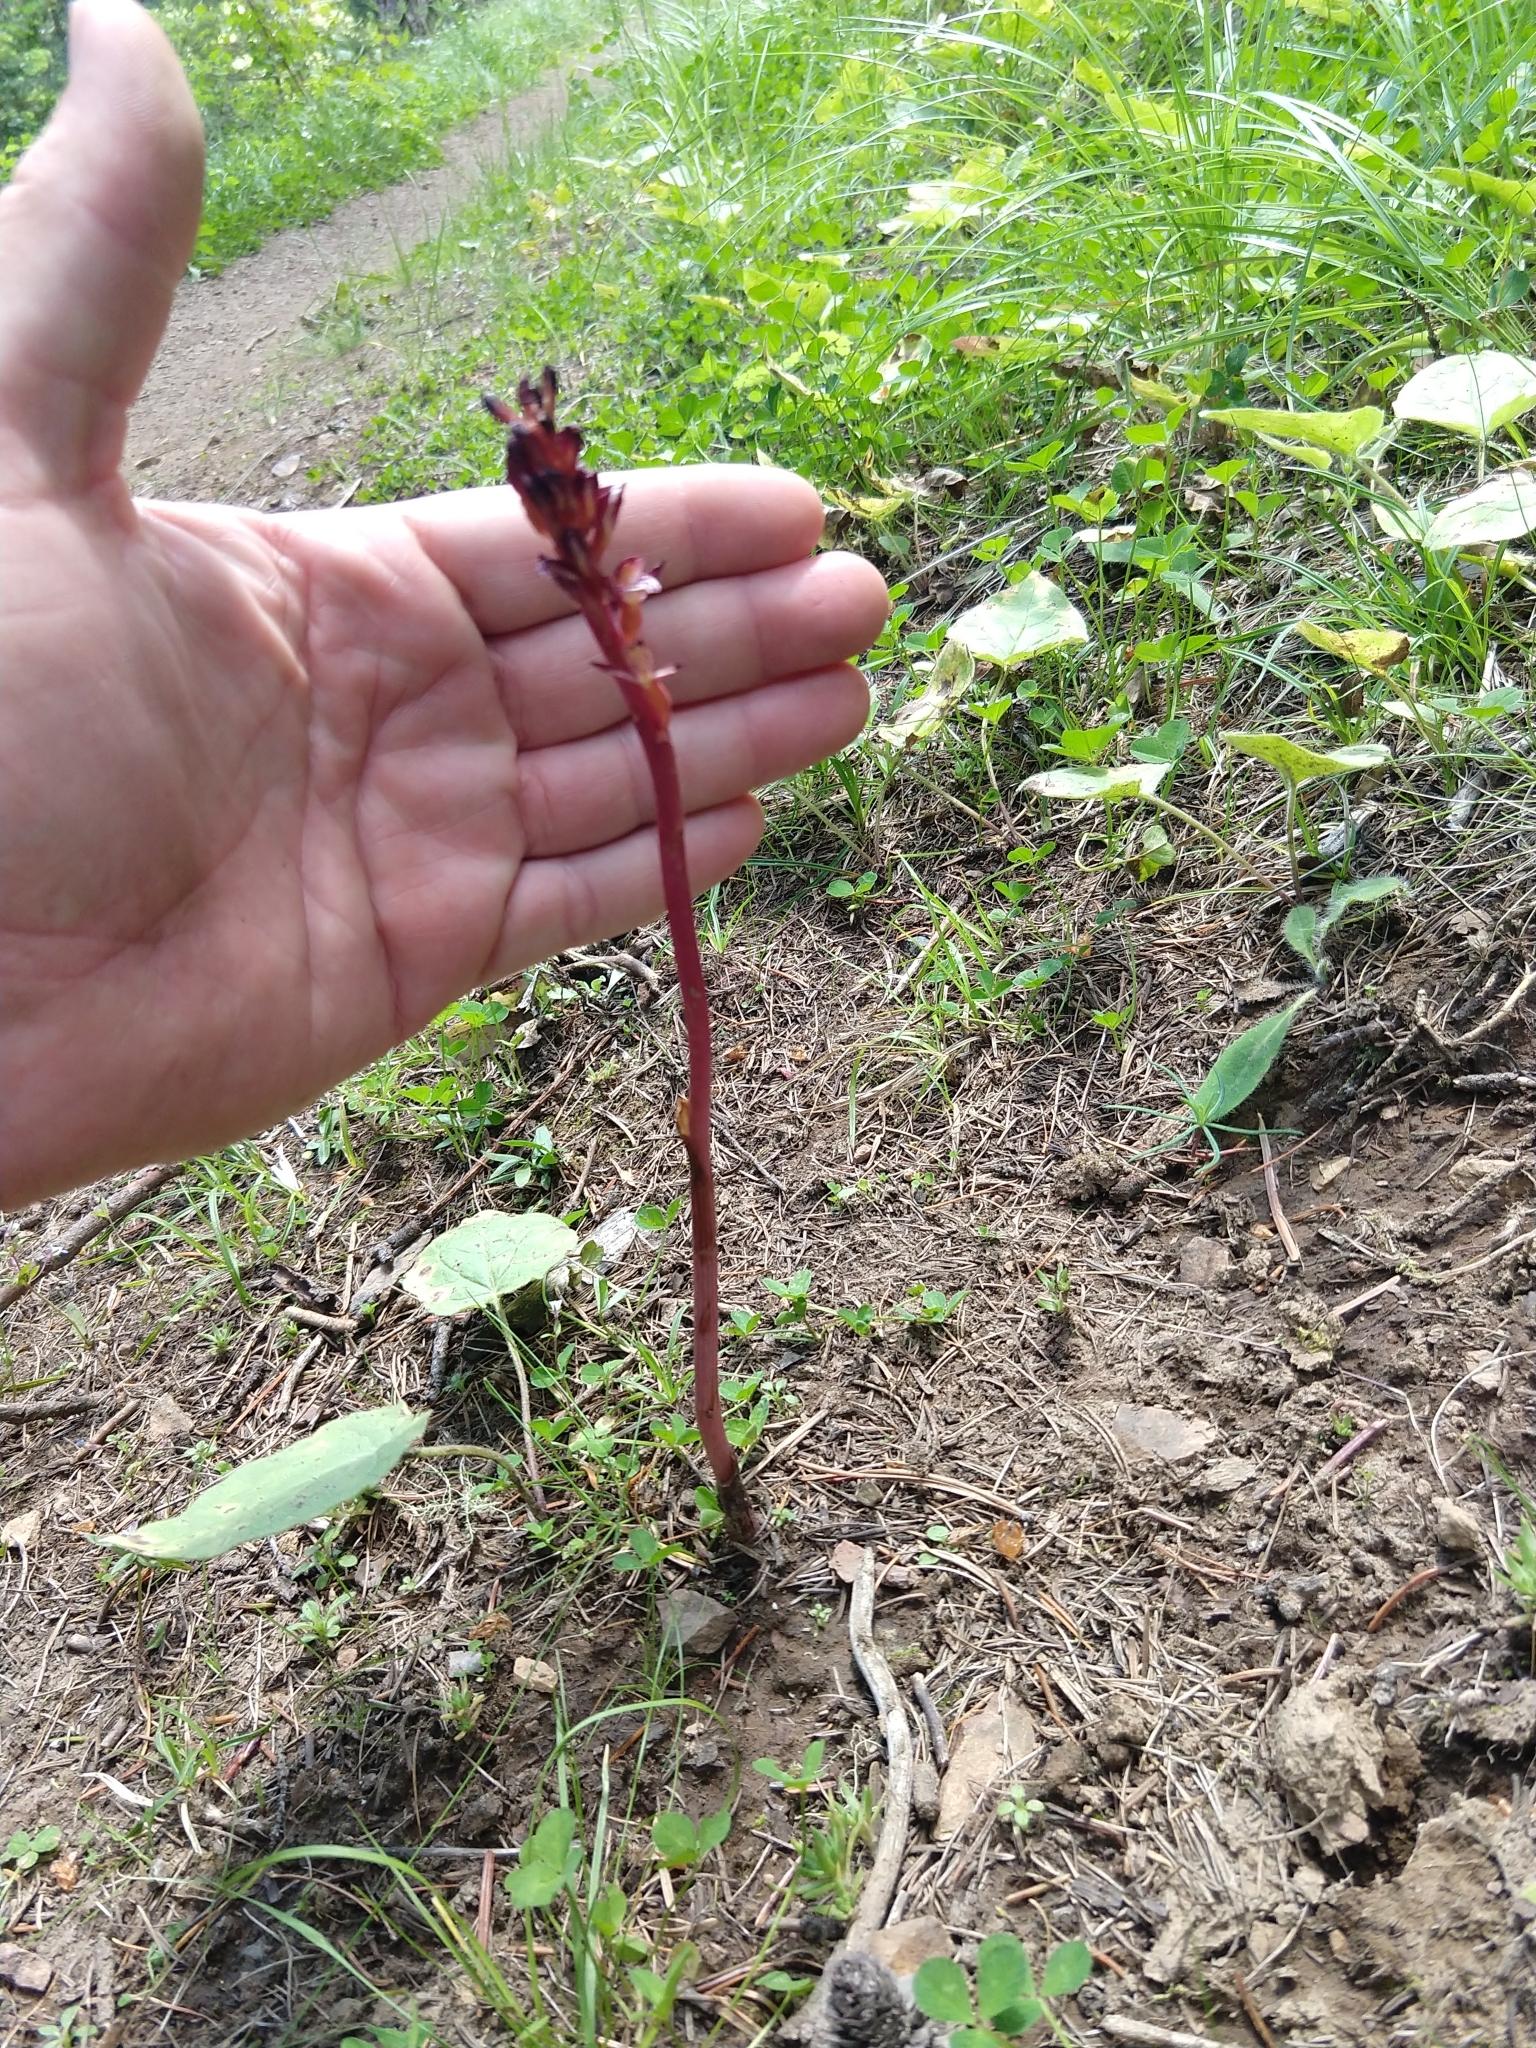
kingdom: Plantae
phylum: Tracheophyta
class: Liliopsida
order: Asparagales
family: Orchidaceae
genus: Corallorhiza
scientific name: Corallorhiza maculata
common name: Spotted coralroot
